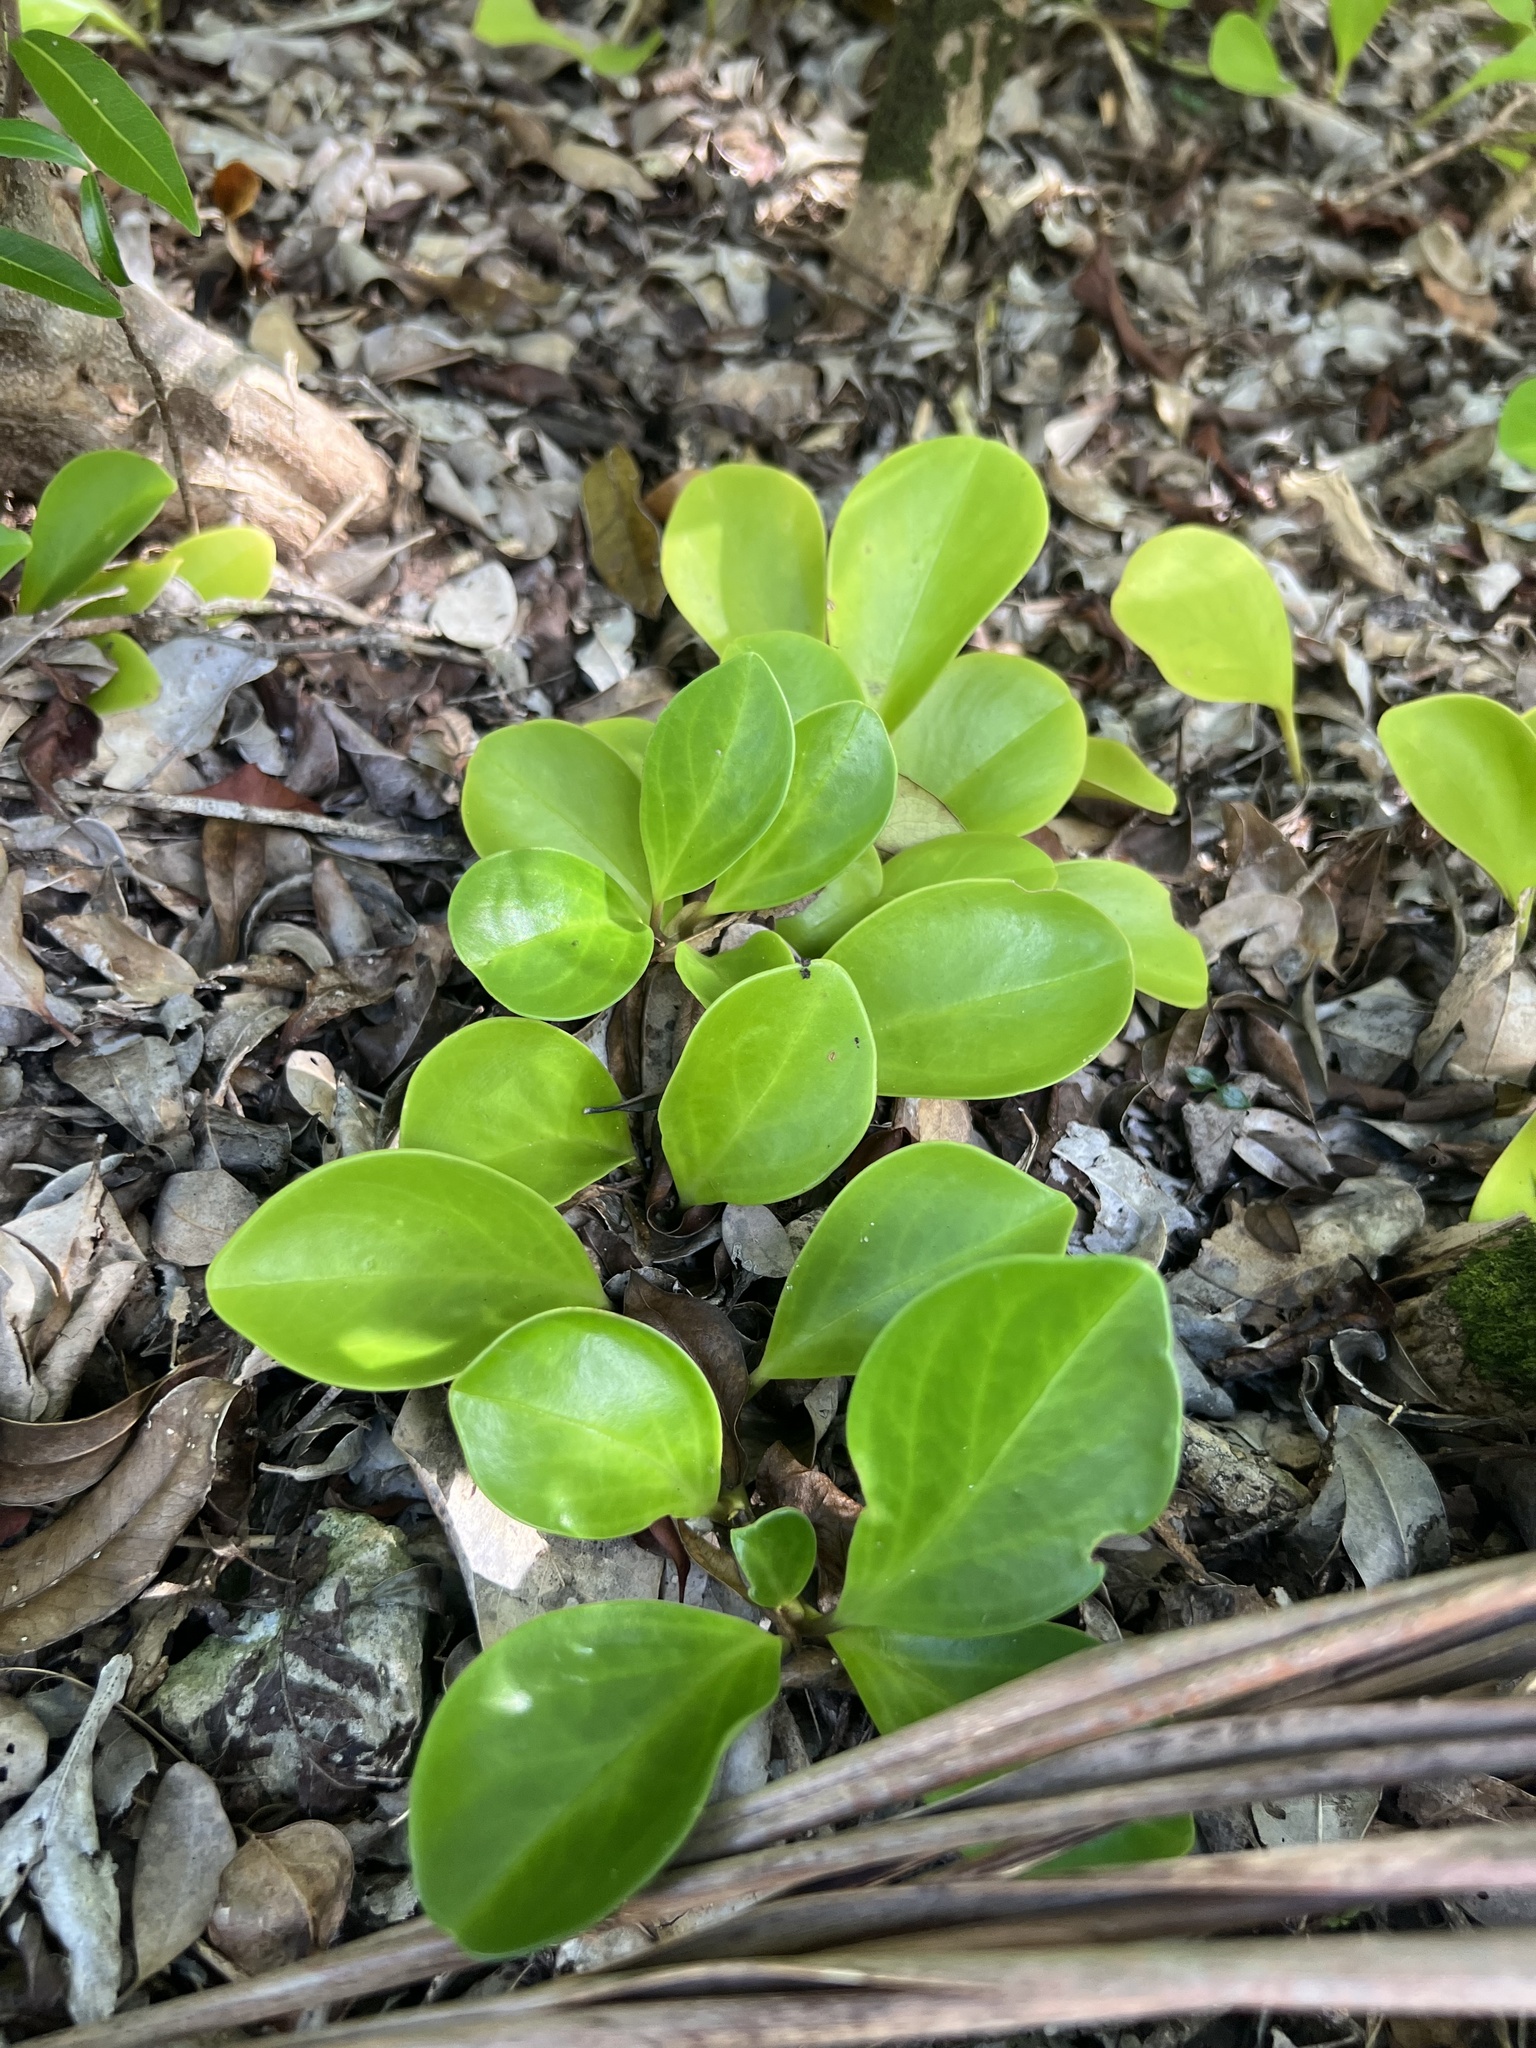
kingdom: Plantae
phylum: Tracheophyta
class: Magnoliopsida
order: Piperales
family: Piperaceae
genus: Peperomia
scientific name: Peperomia magnoliifolia
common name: Spoonleaf peperomia
